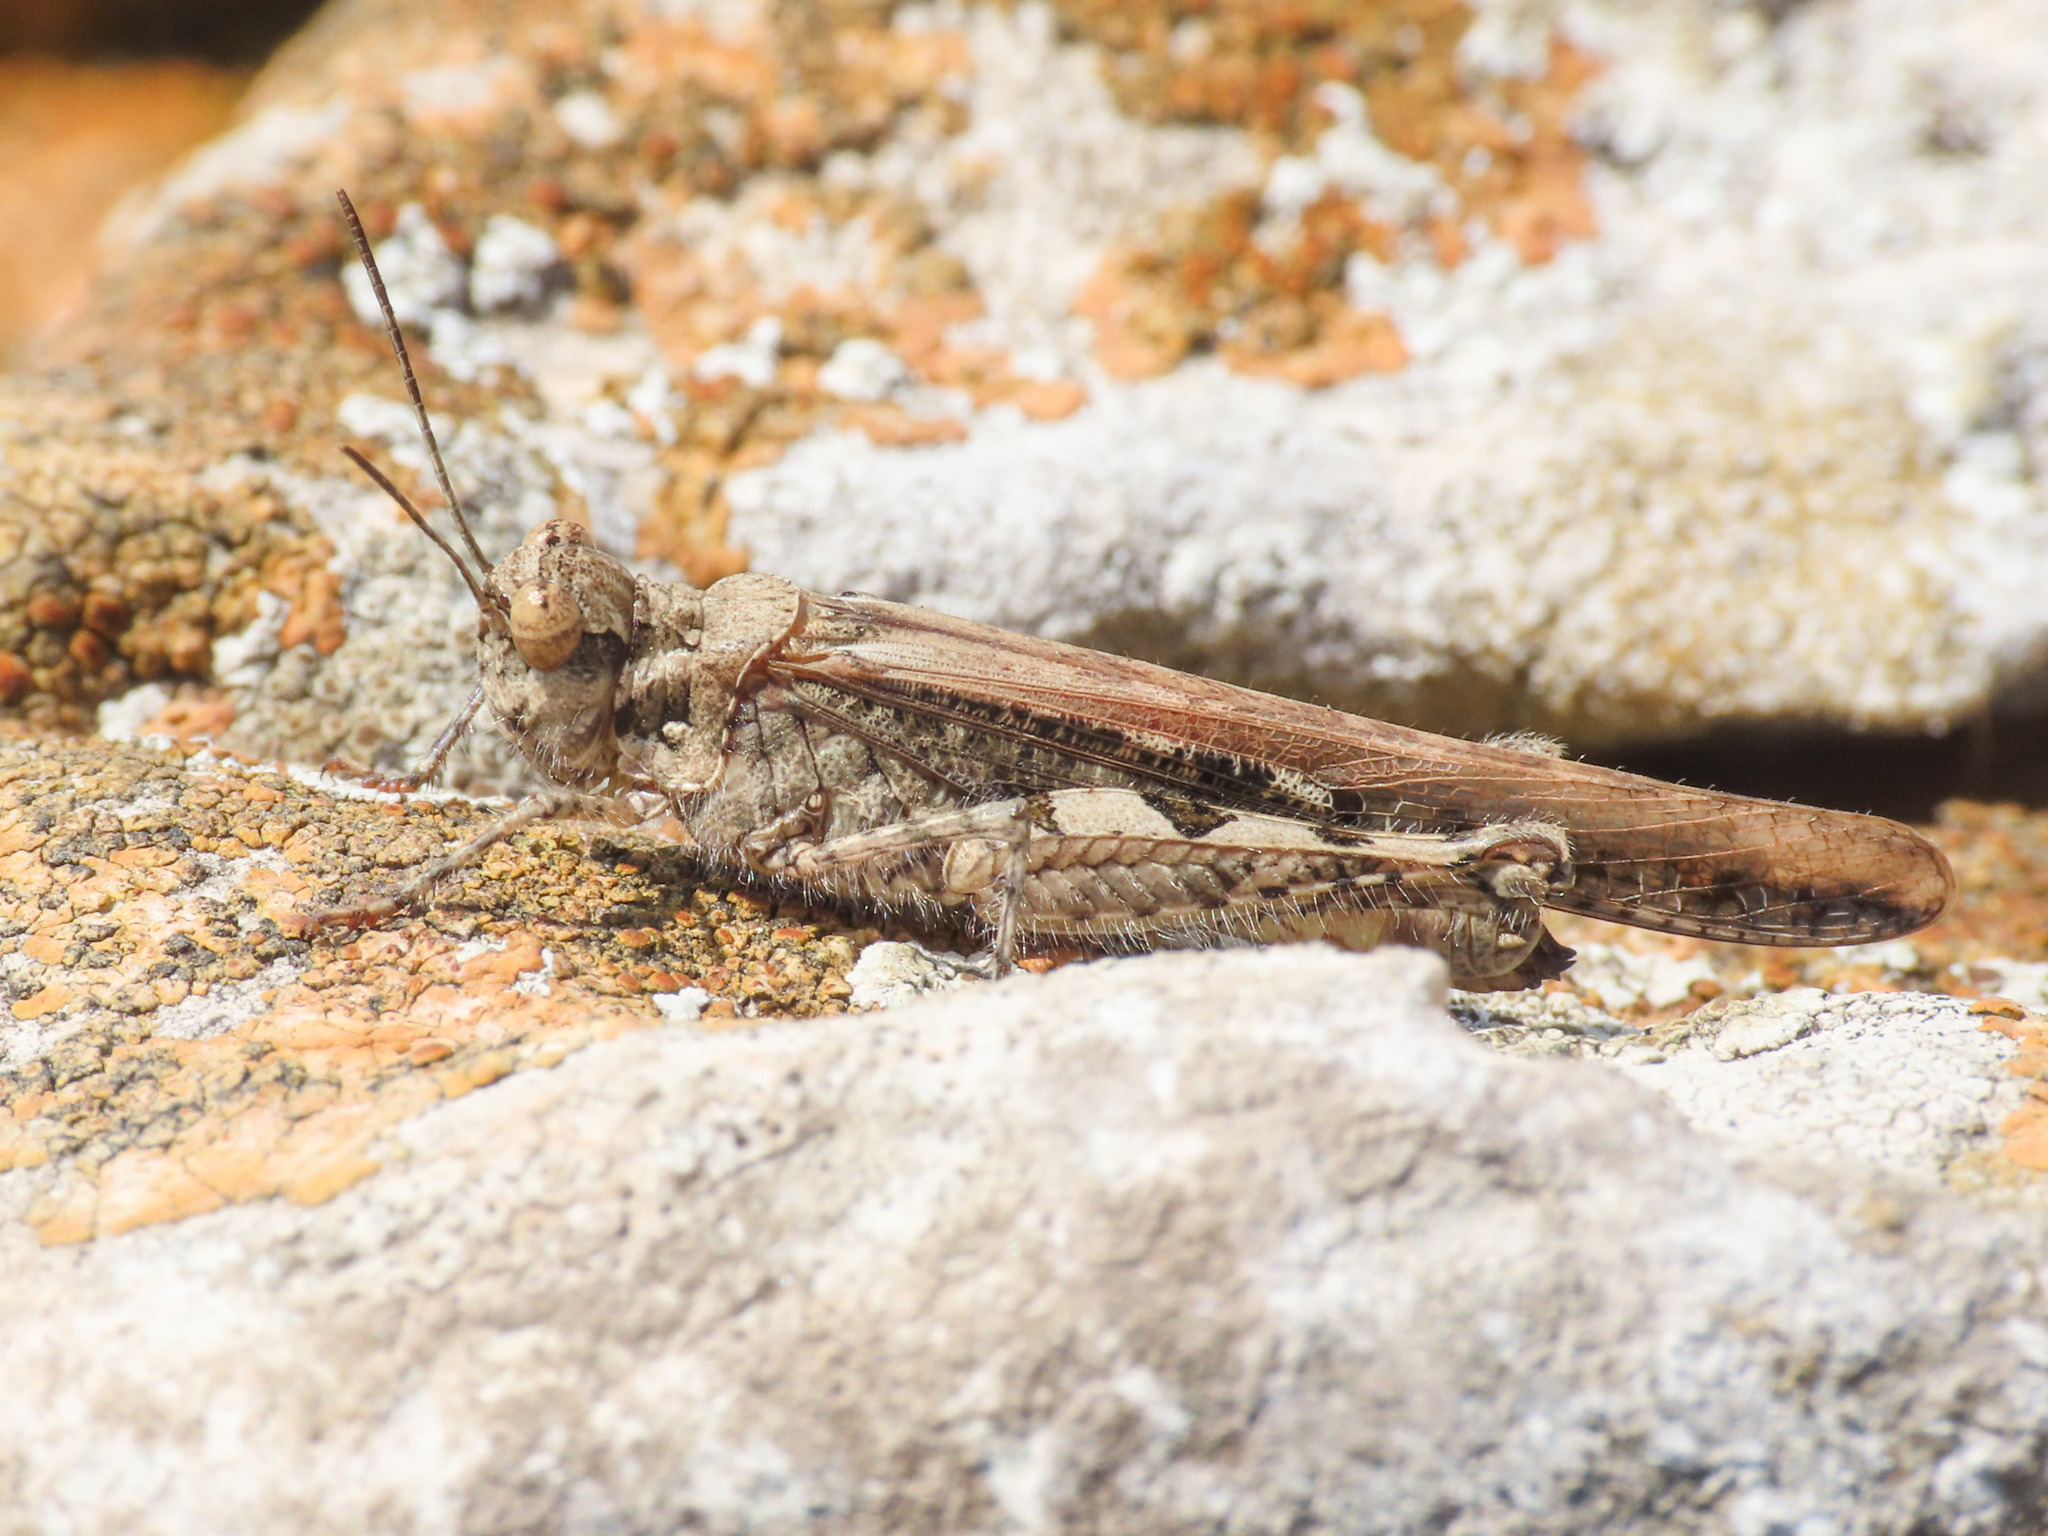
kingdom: Animalia
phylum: Arthropoda
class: Insecta
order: Orthoptera
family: Acrididae
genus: Acrotylus
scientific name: Acrotylus patruelis
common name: Slender burrowing grasshopper
